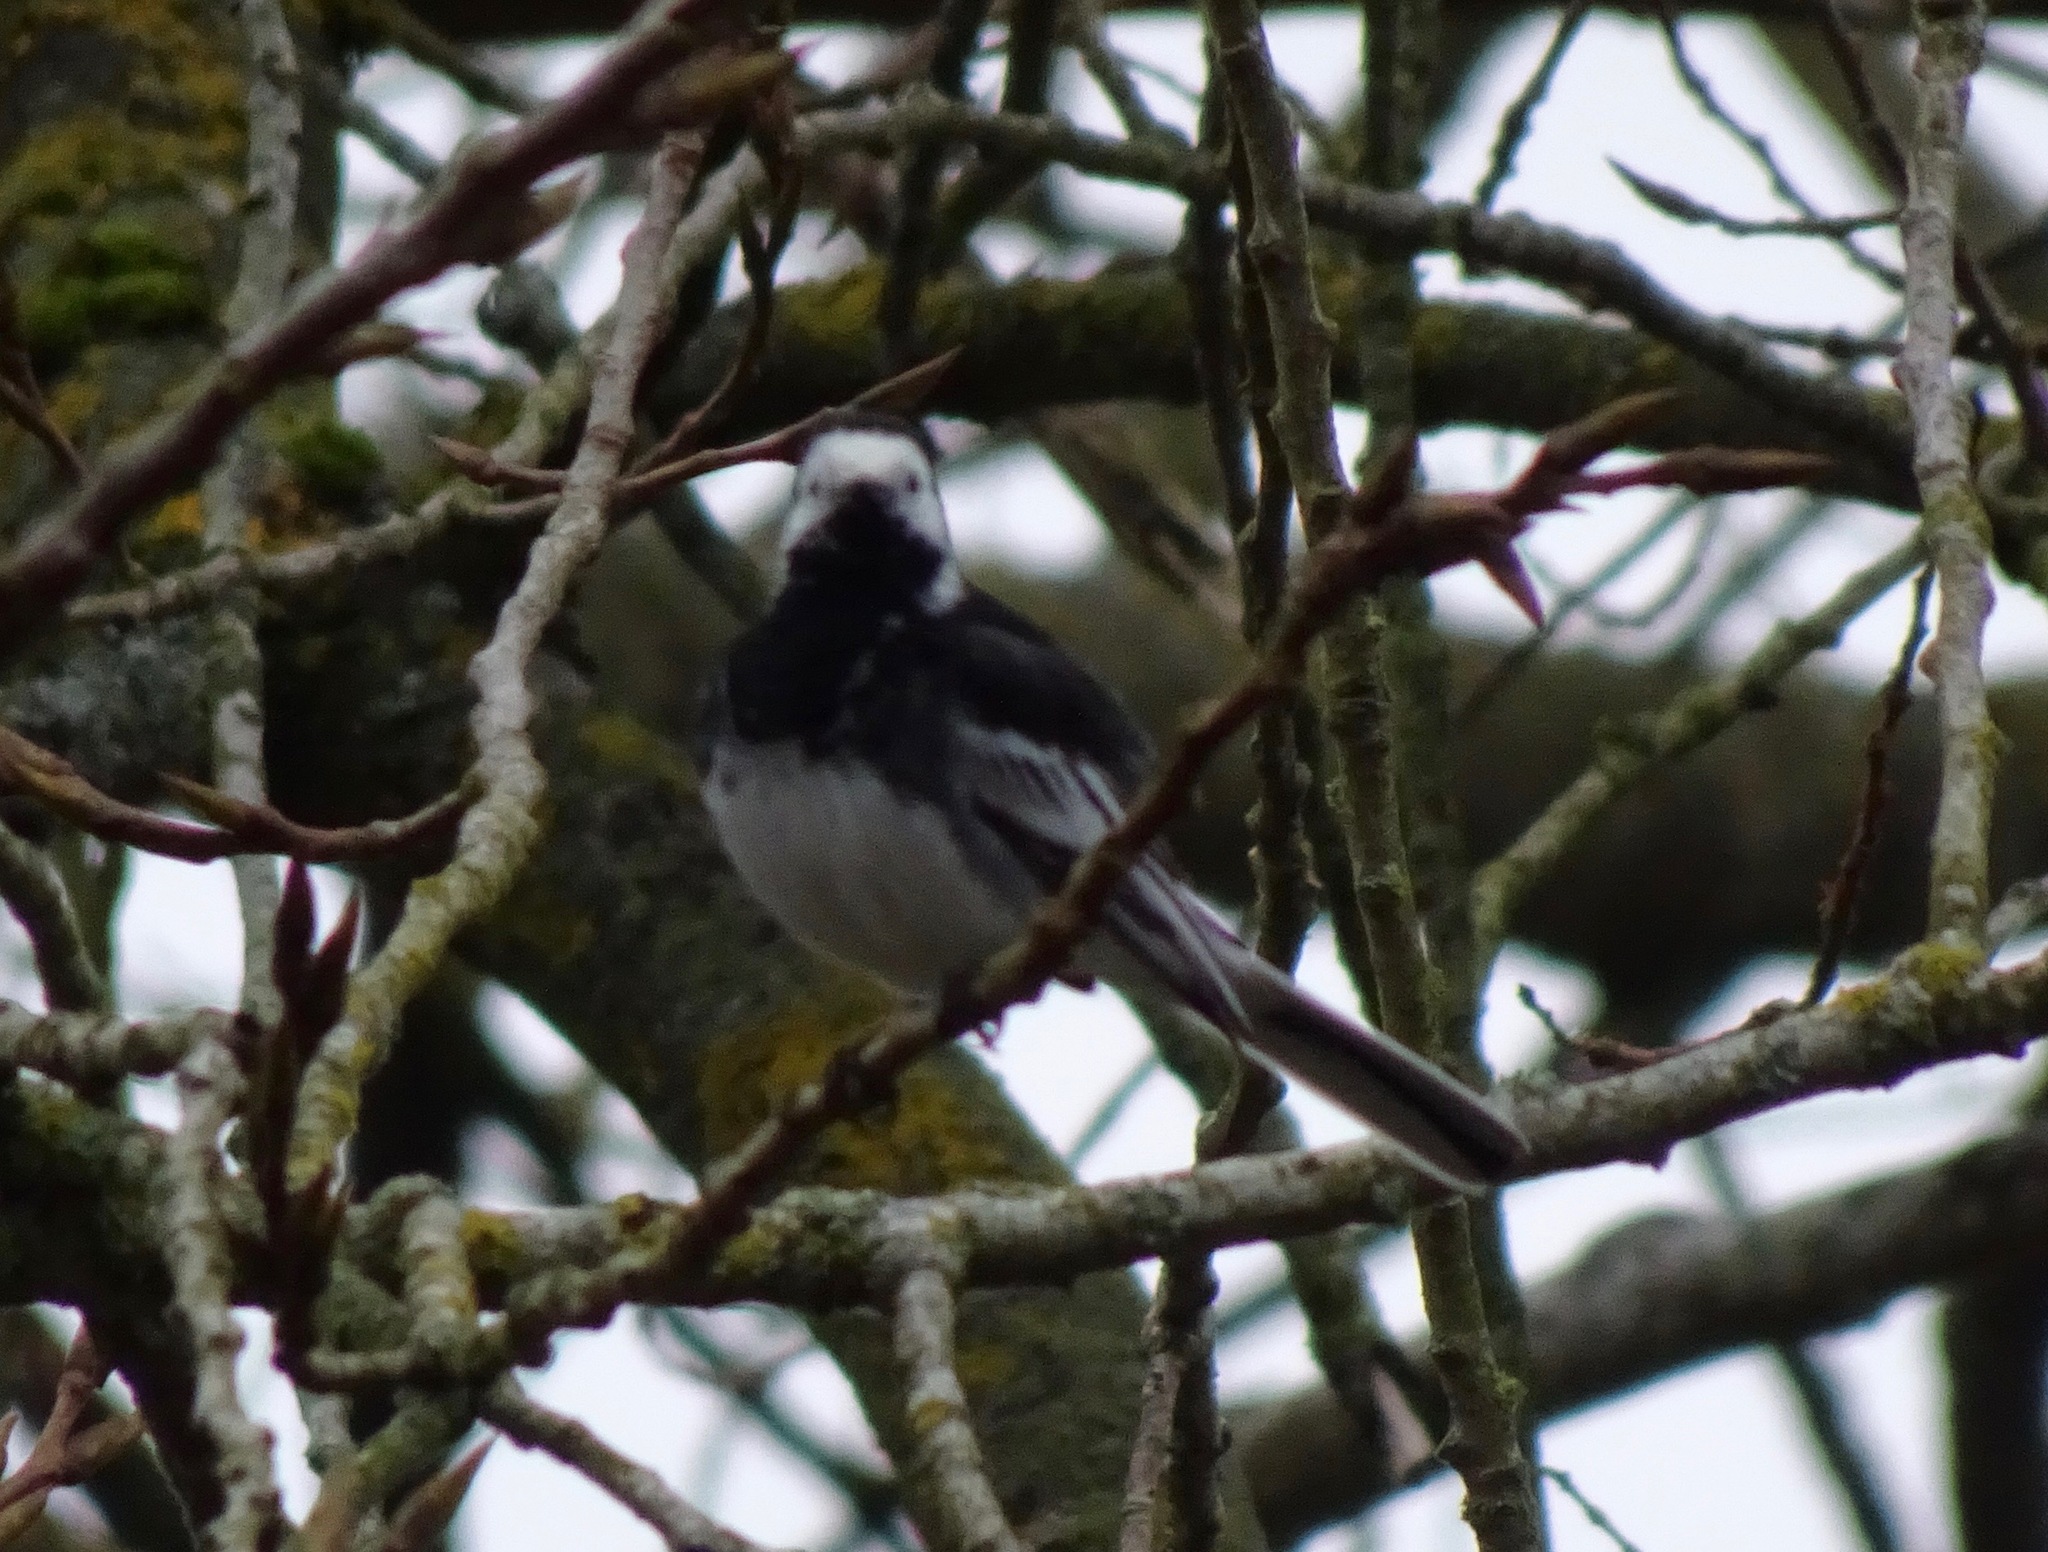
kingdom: Animalia
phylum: Chordata
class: Aves
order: Passeriformes
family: Motacillidae
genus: Motacilla
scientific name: Motacilla alba
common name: White wagtail
